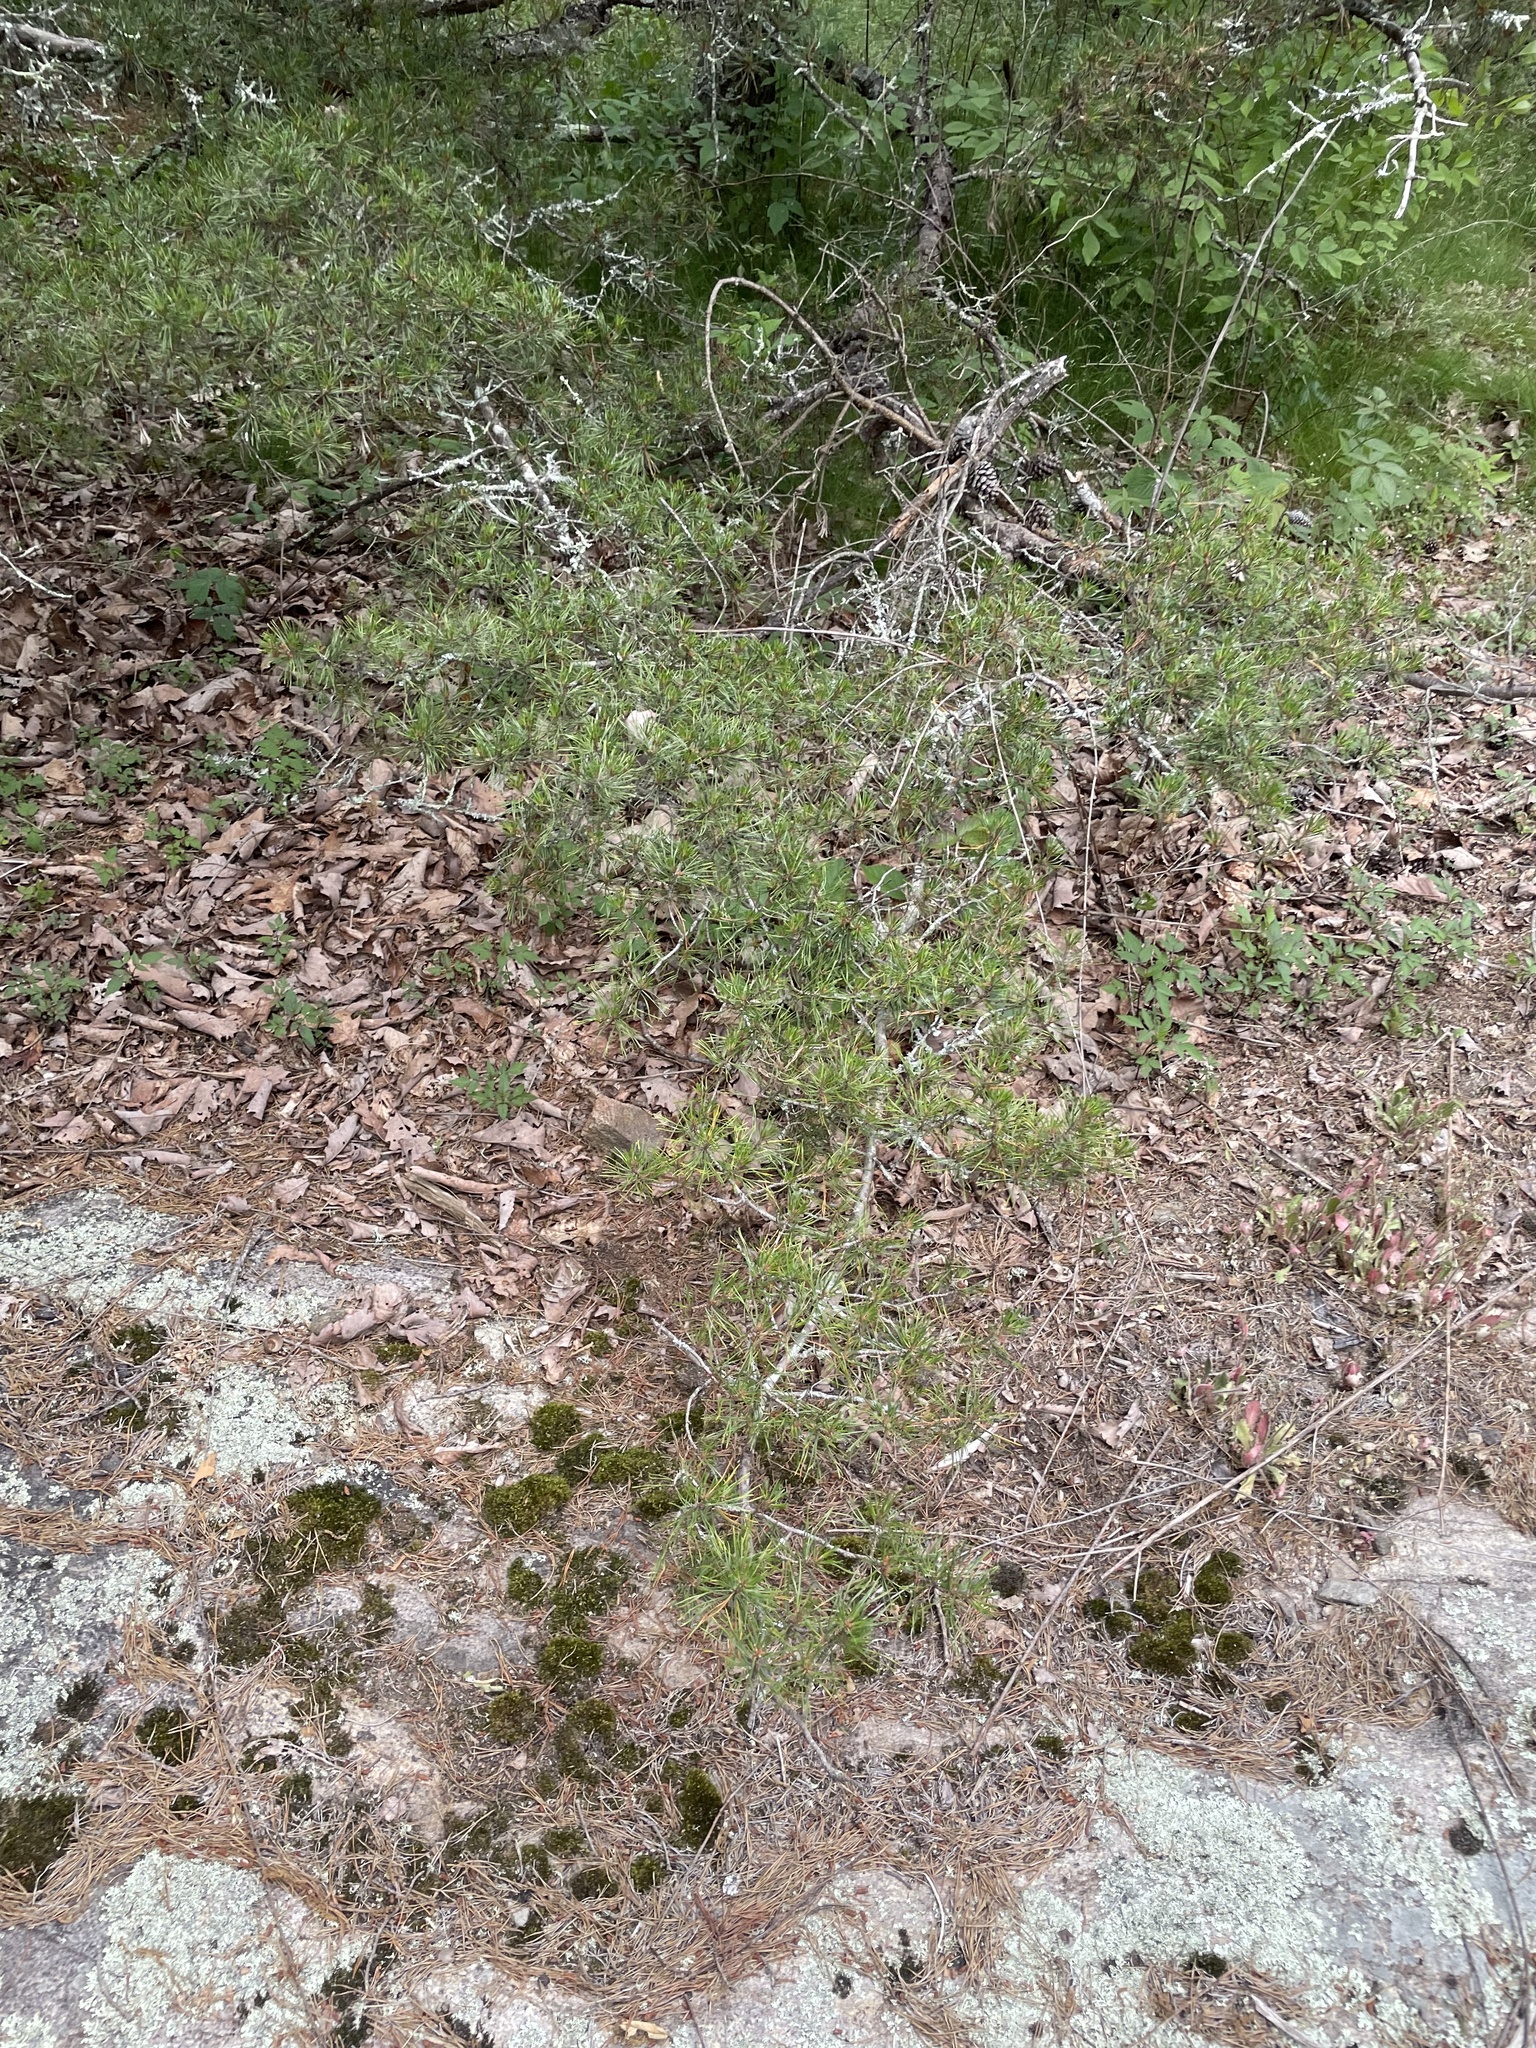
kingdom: Plantae
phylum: Tracheophyta
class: Pinopsida
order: Pinales
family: Pinaceae
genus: Pinus
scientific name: Pinus virginiana
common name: Scrub pine
